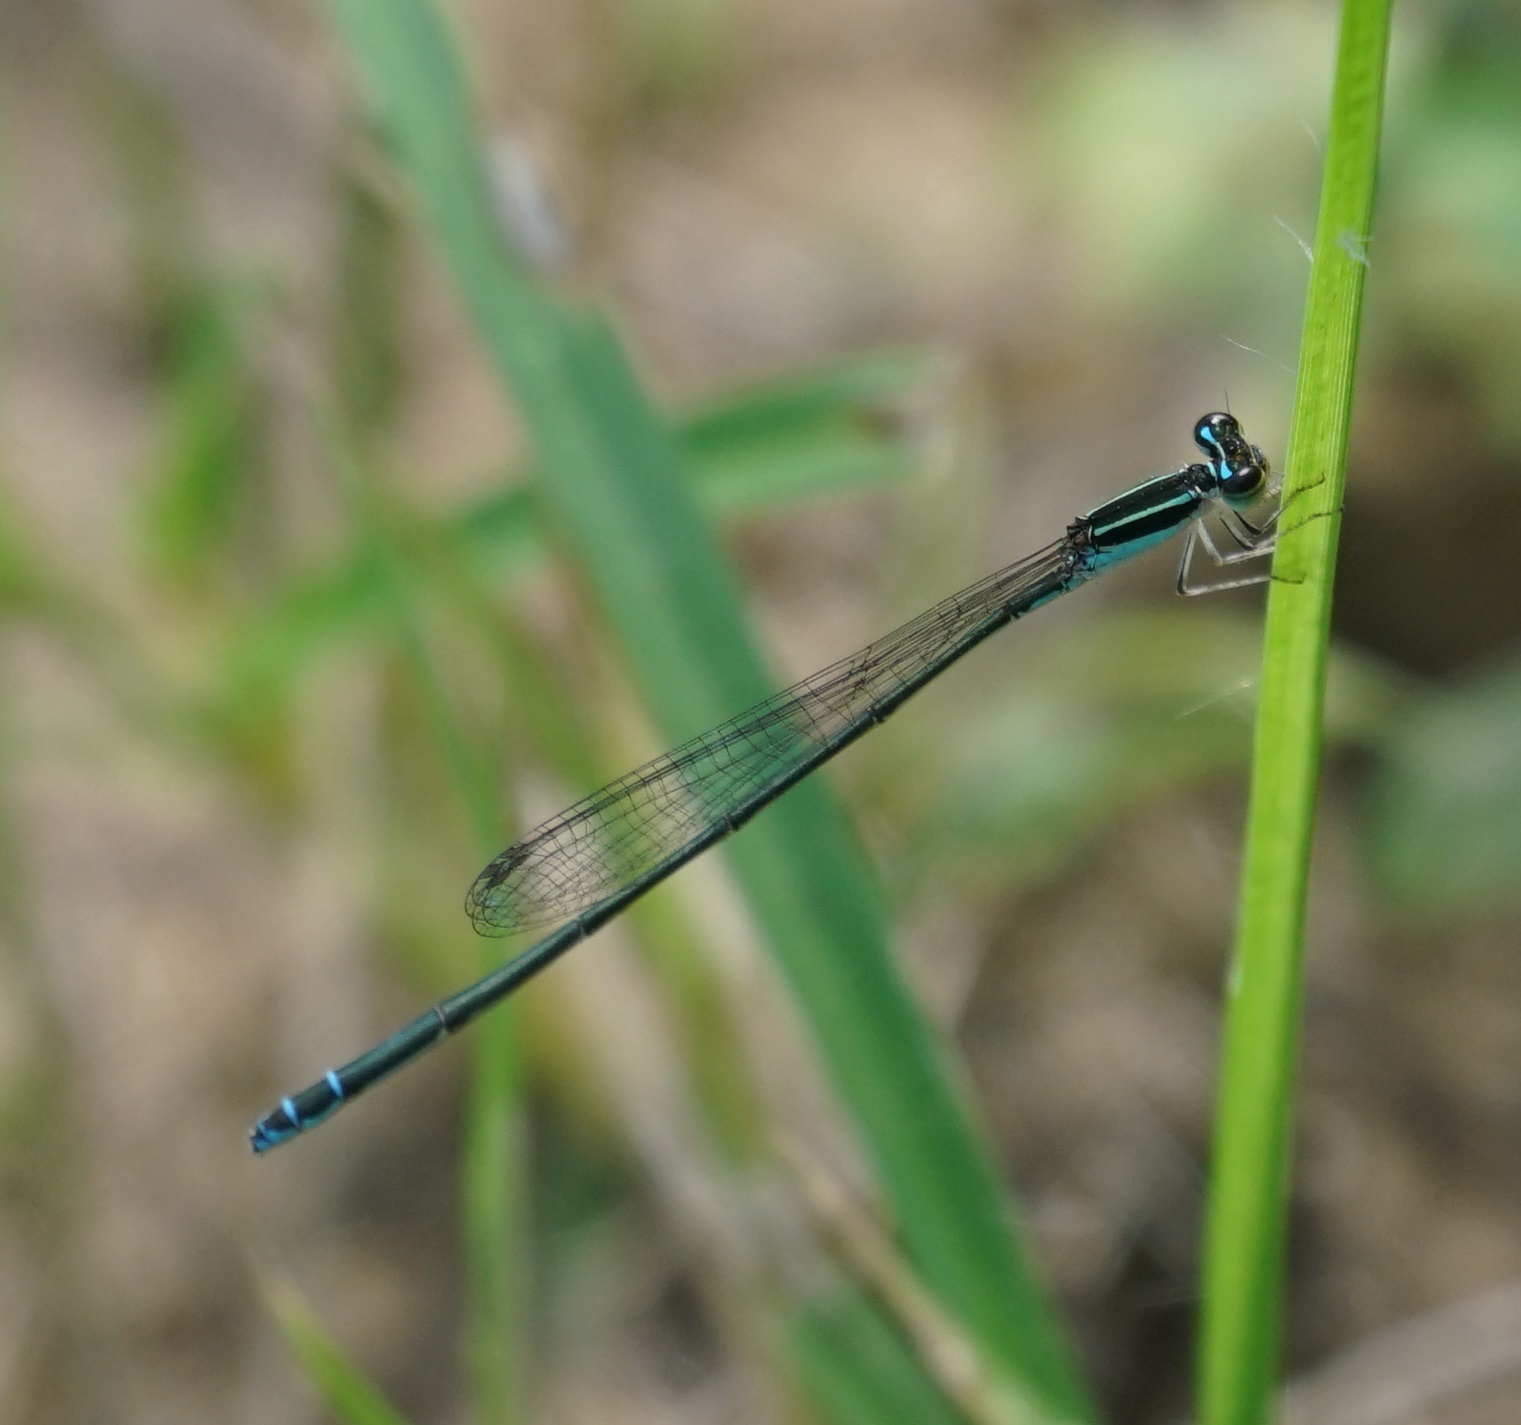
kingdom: Animalia
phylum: Arthropoda
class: Insecta
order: Odonata
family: Coenagrionidae
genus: Aciagrion
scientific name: Aciagrion fragile
